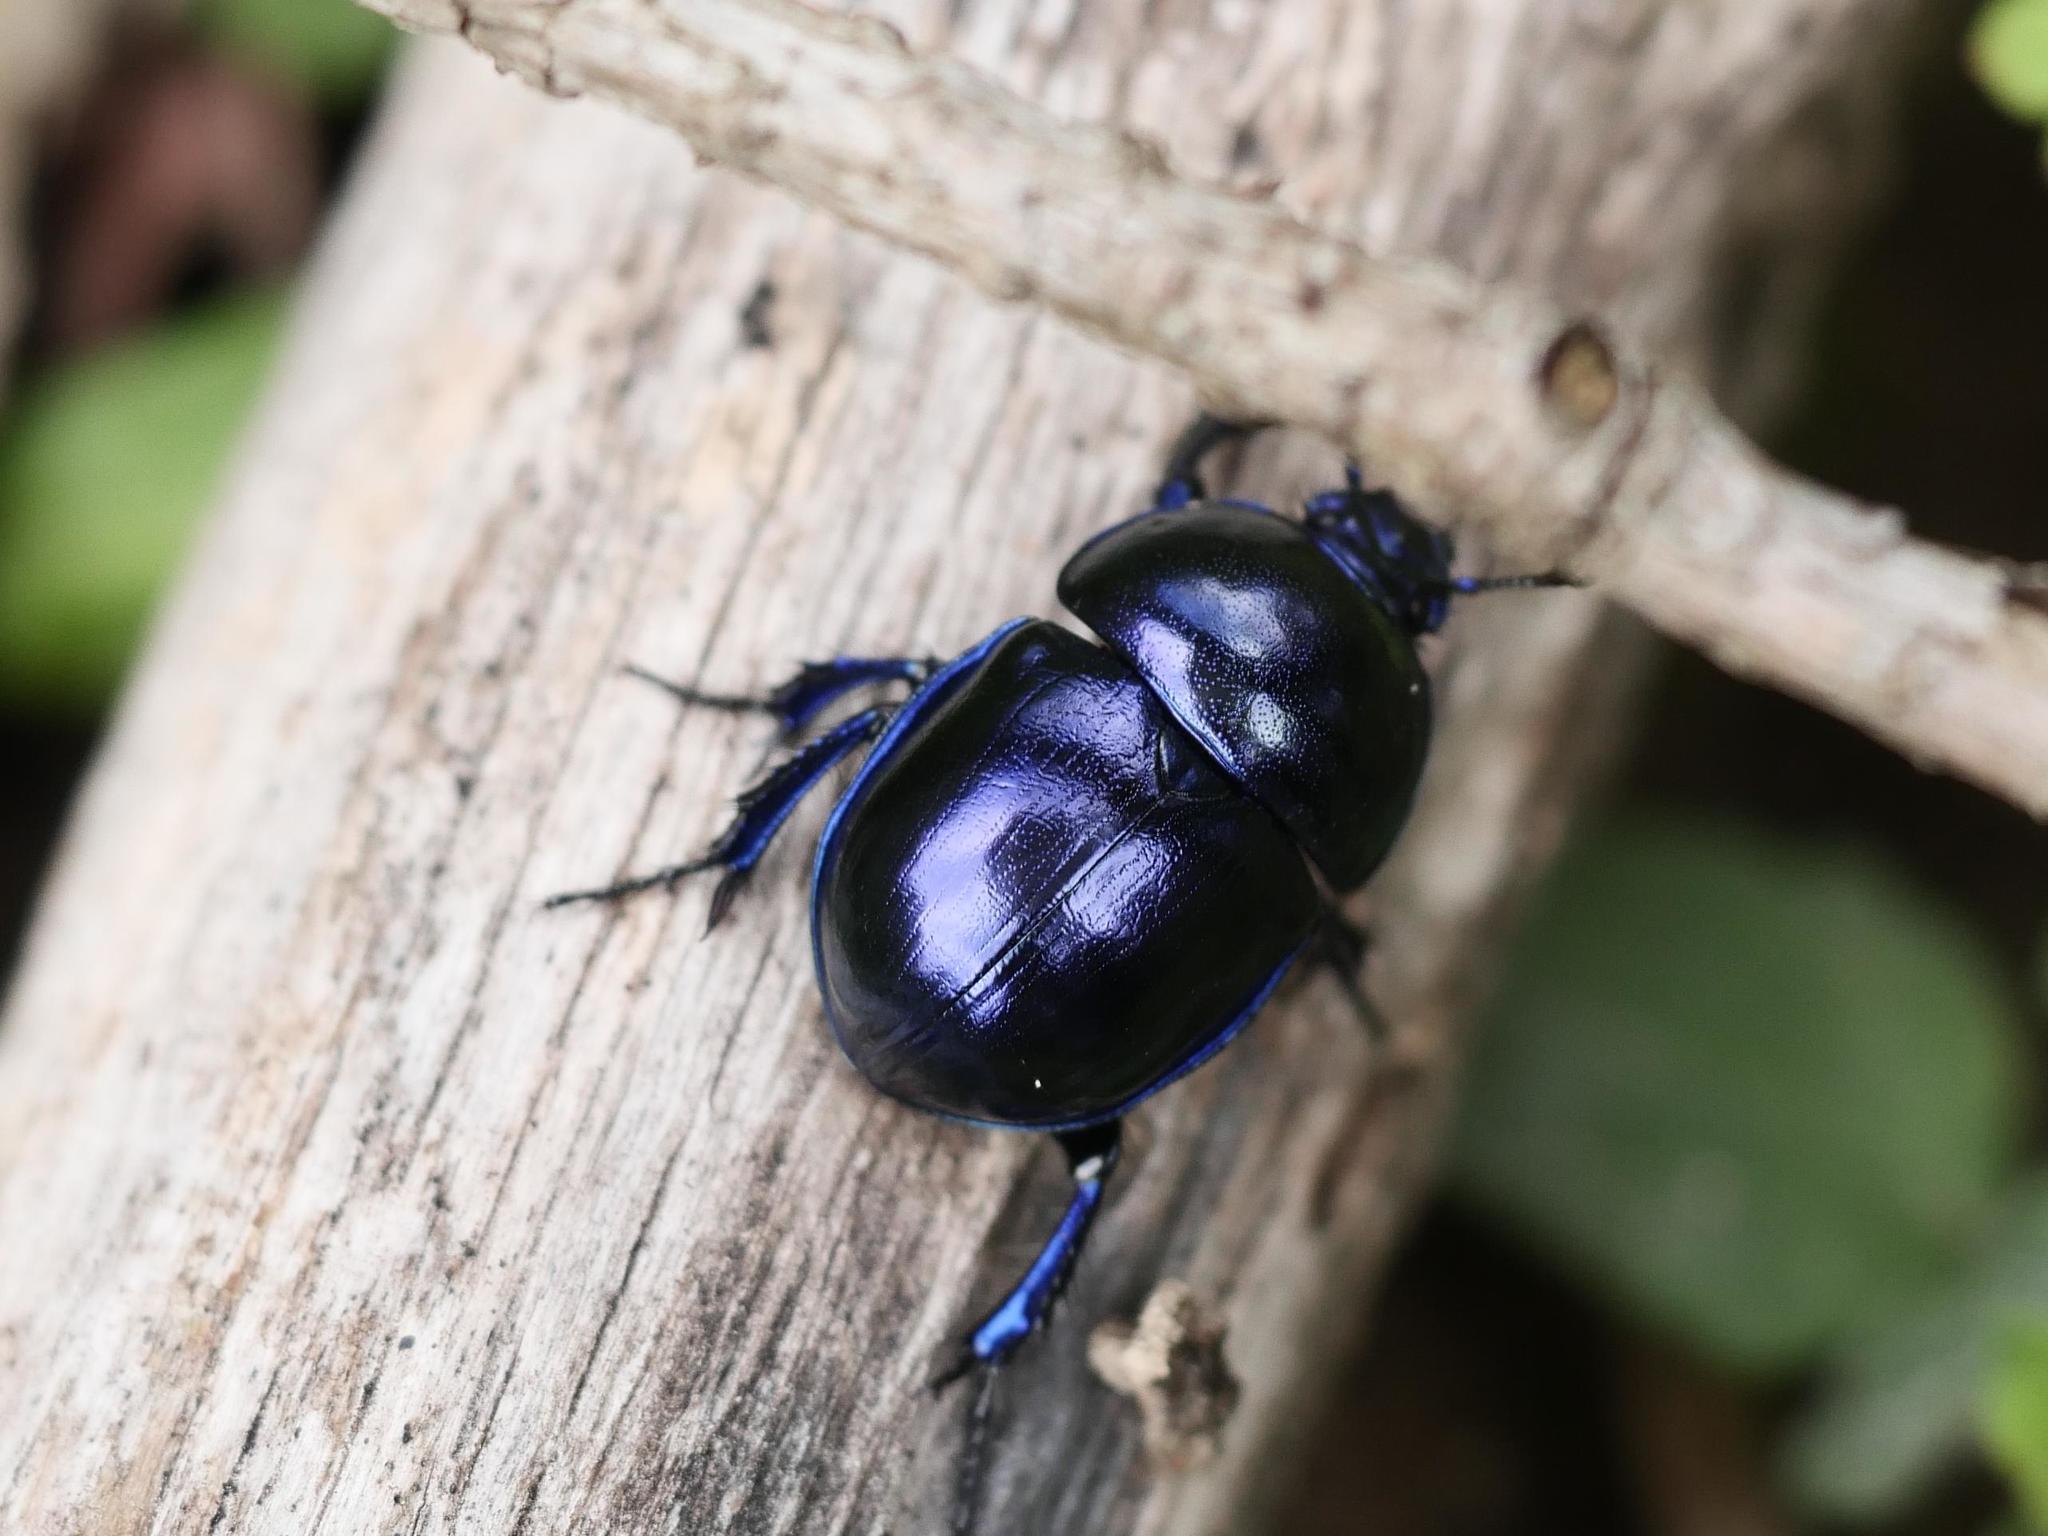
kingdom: Animalia
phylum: Arthropoda
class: Insecta
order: Coleoptera
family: Geotrupidae
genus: Trypocopris
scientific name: Trypocopris vernalis
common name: Spring dumbledor
